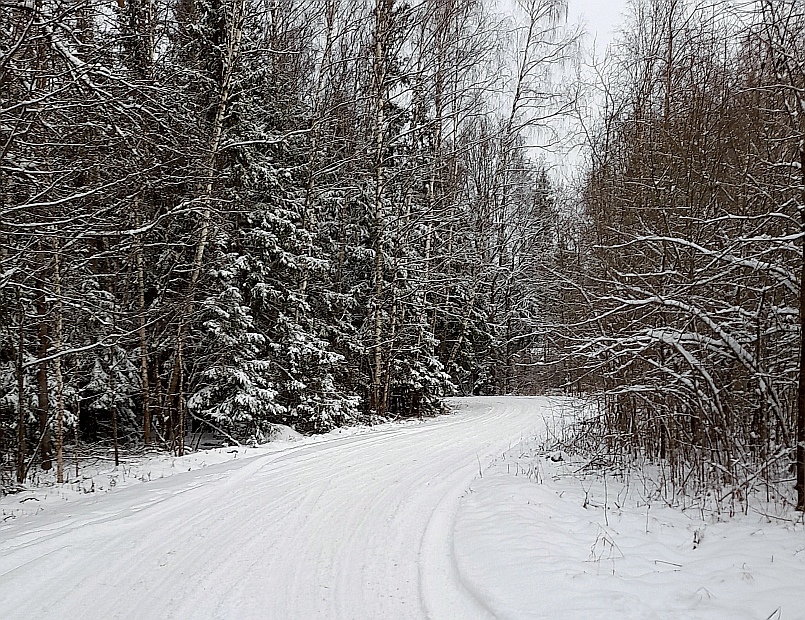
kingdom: Plantae
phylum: Tracheophyta
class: Pinopsida
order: Pinales
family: Pinaceae
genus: Picea
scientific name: Picea abies
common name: Norway spruce
